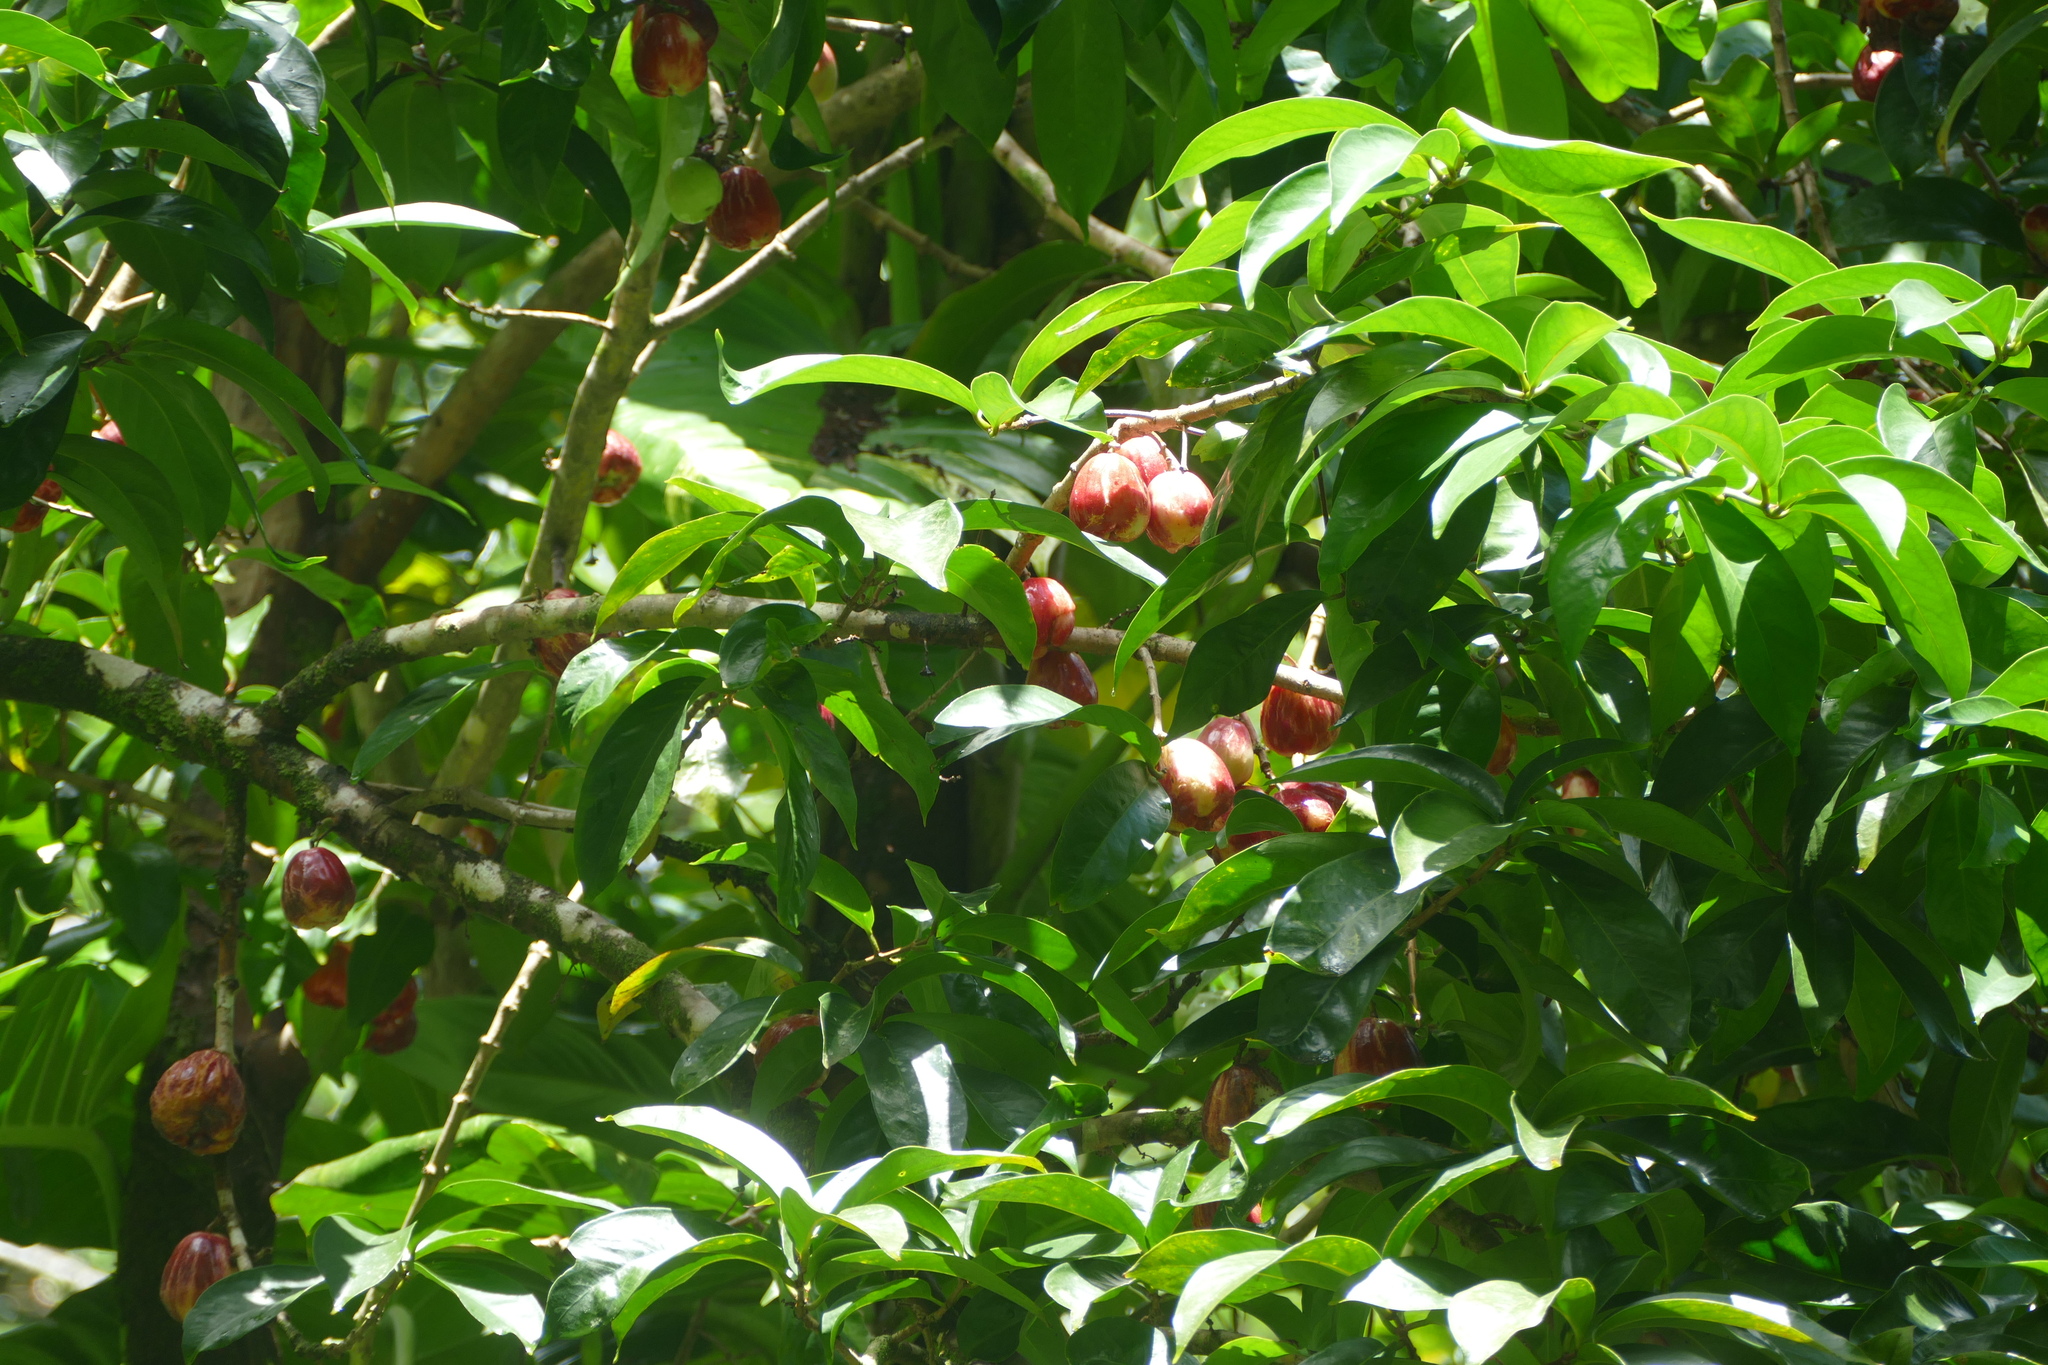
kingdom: Plantae
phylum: Tracheophyta
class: Magnoliopsida
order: Myrtales
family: Myrtaceae
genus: Syzygium
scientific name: Syzygium malaccense
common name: Malaysian apple
